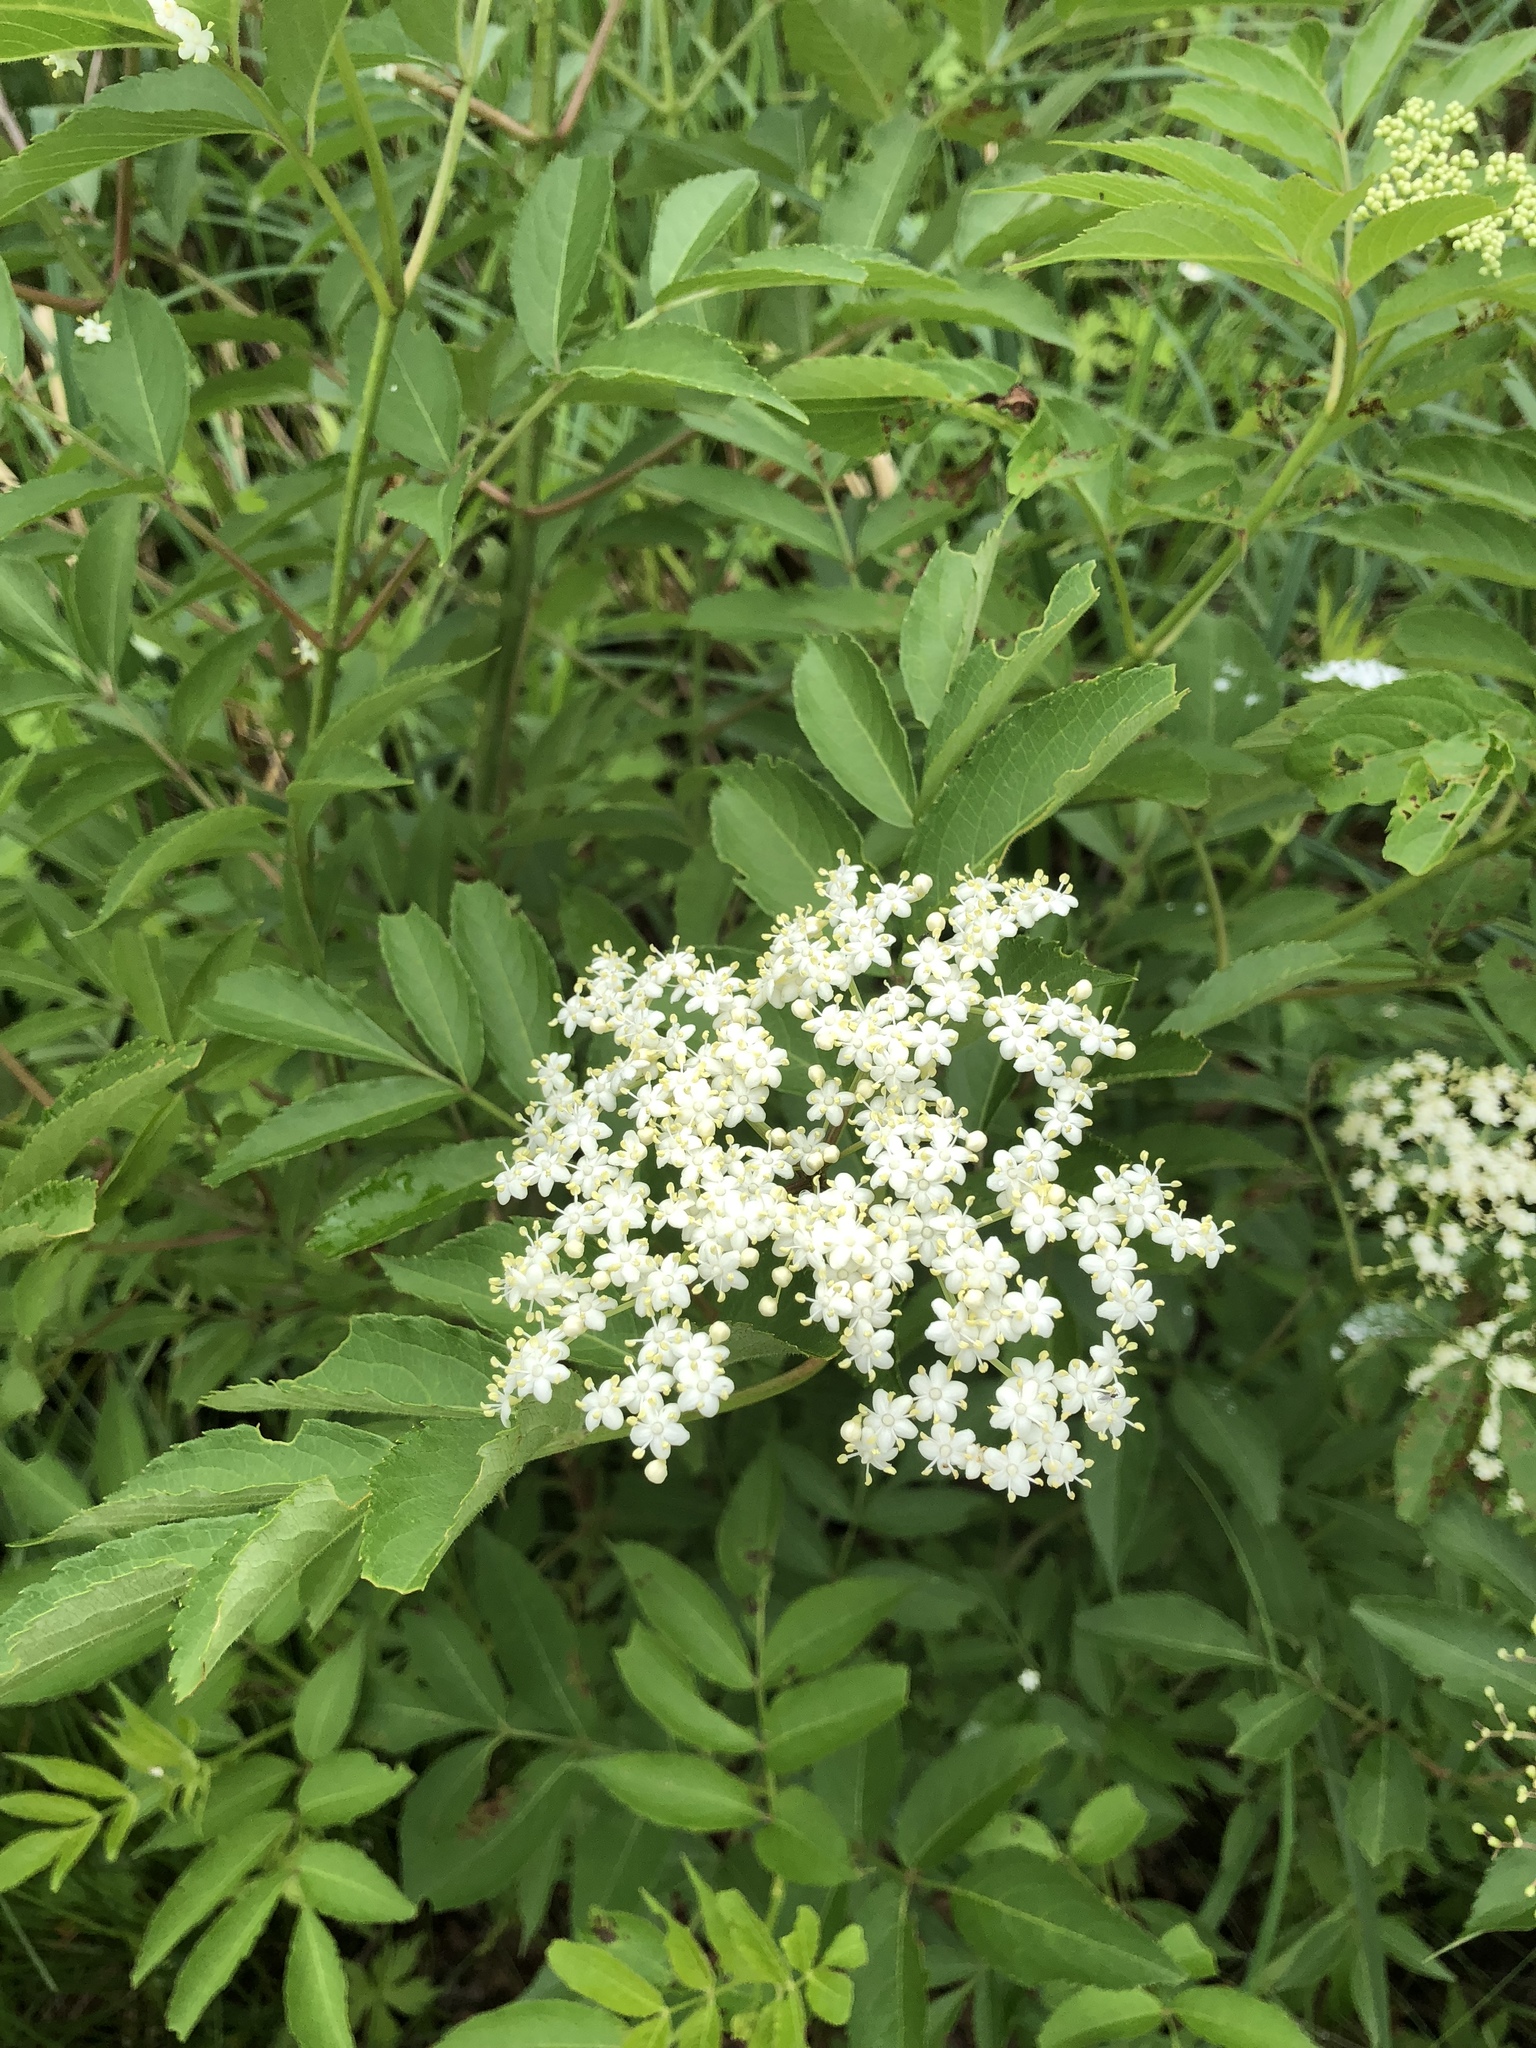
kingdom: Plantae
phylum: Tracheophyta
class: Magnoliopsida
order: Dipsacales
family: Viburnaceae
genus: Sambucus
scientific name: Sambucus canadensis
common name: American elder
